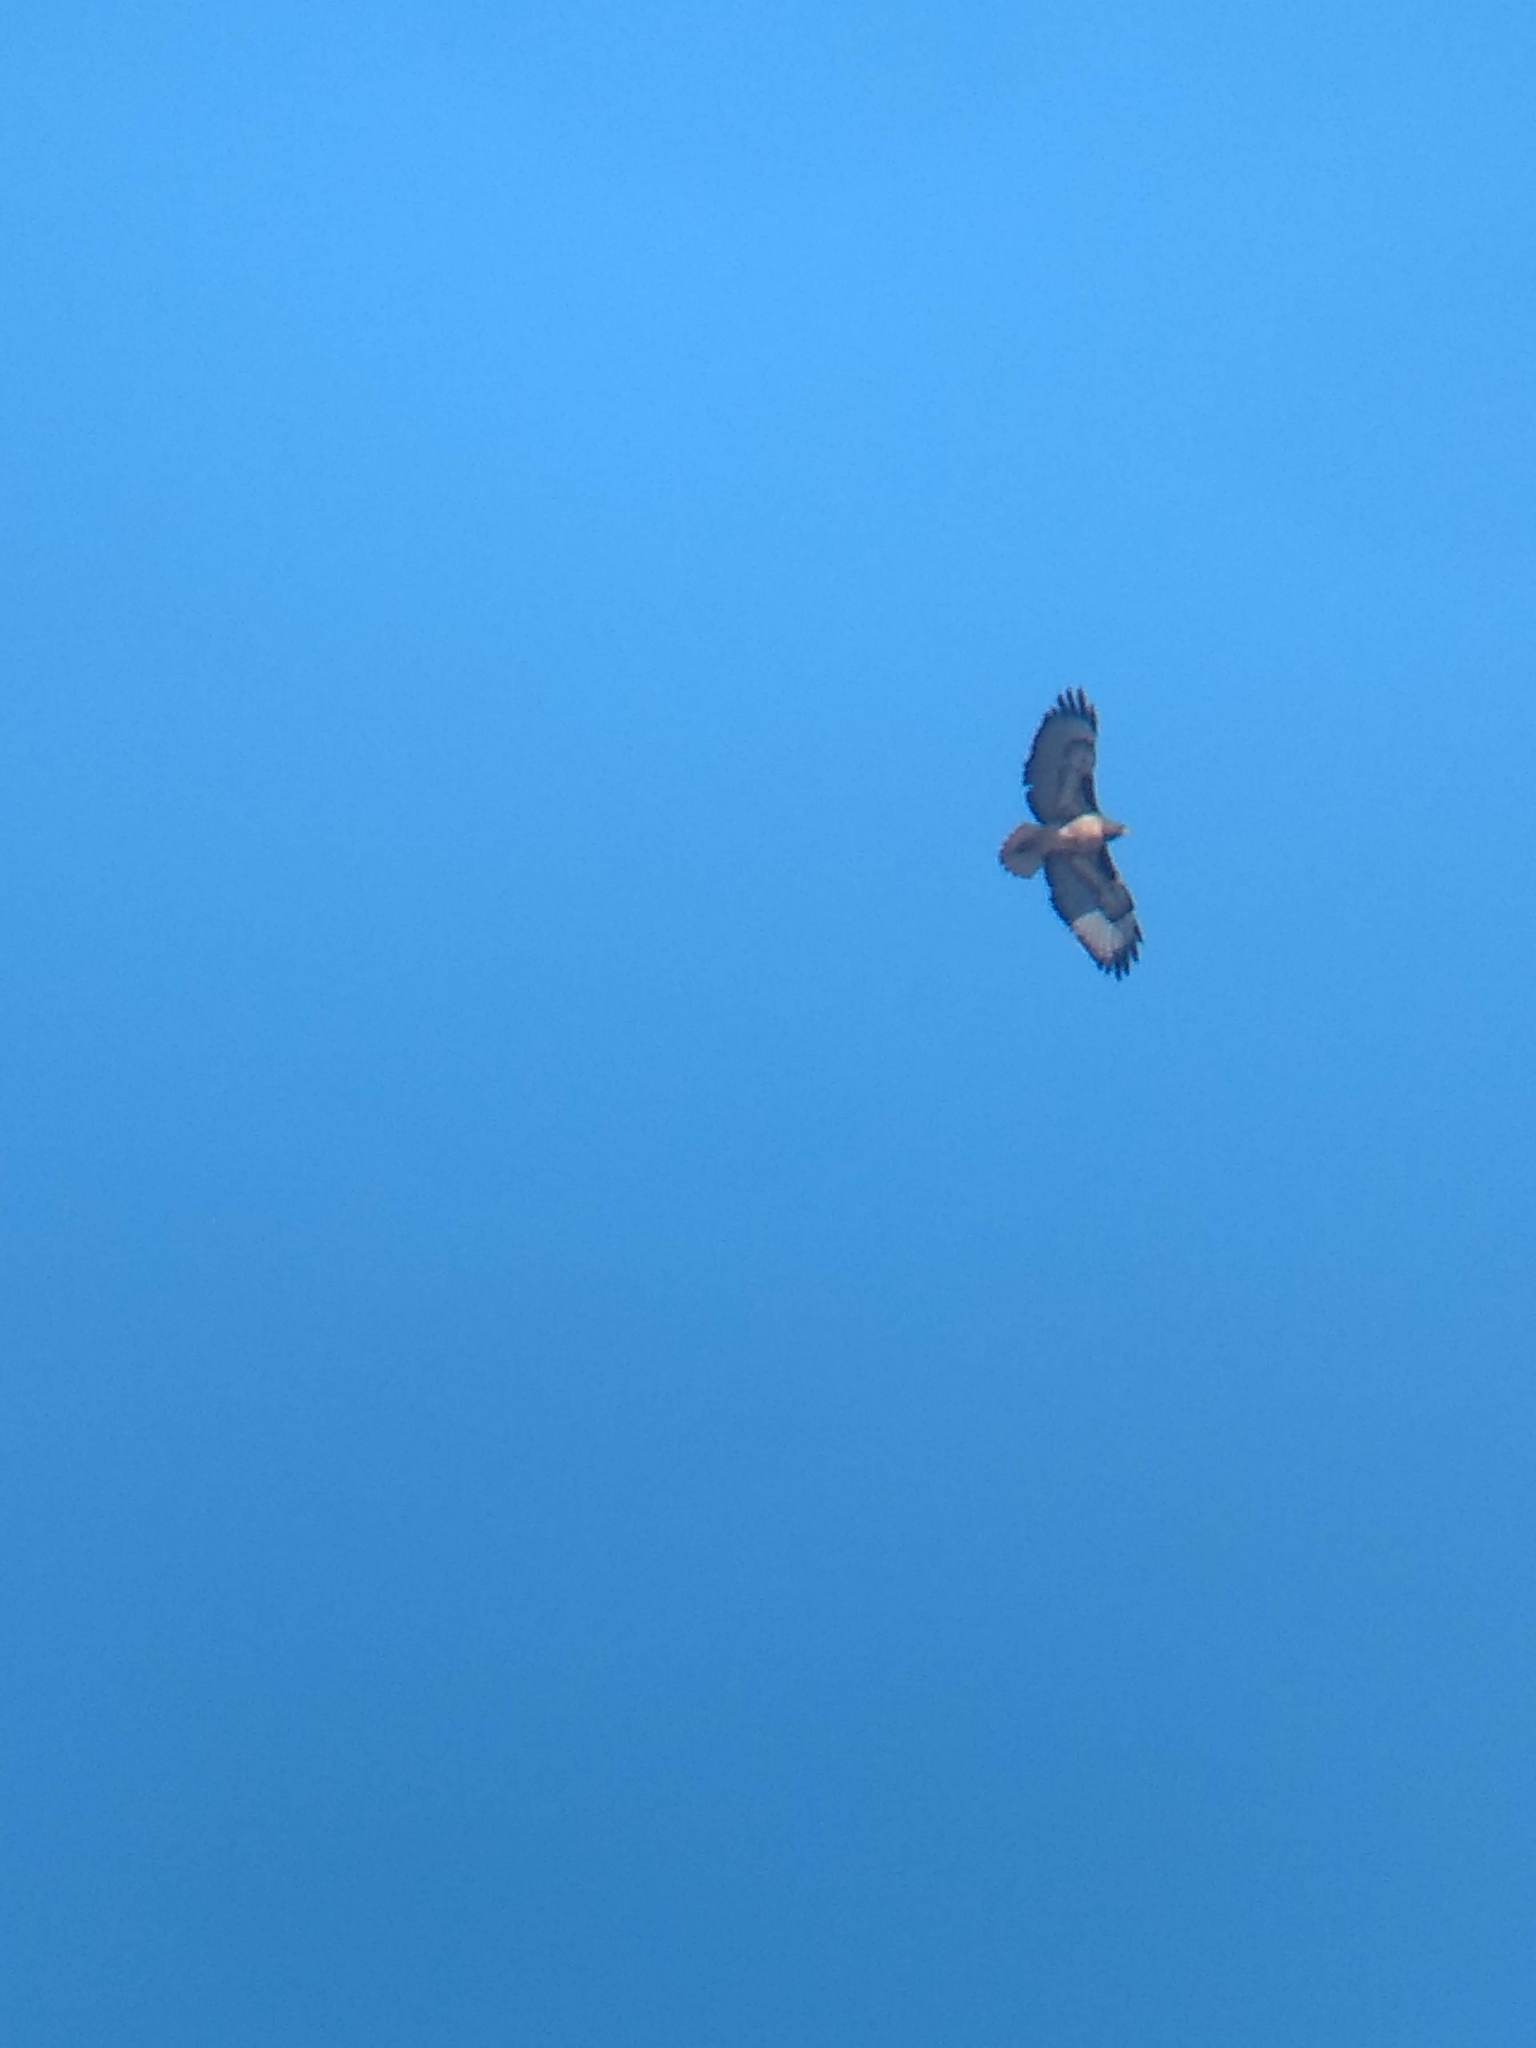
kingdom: Animalia
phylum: Chordata
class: Aves
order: Accipitriformes
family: Accipitridae
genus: Buteo
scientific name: Buteo jamaicensis
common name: Red-tailed hawk
